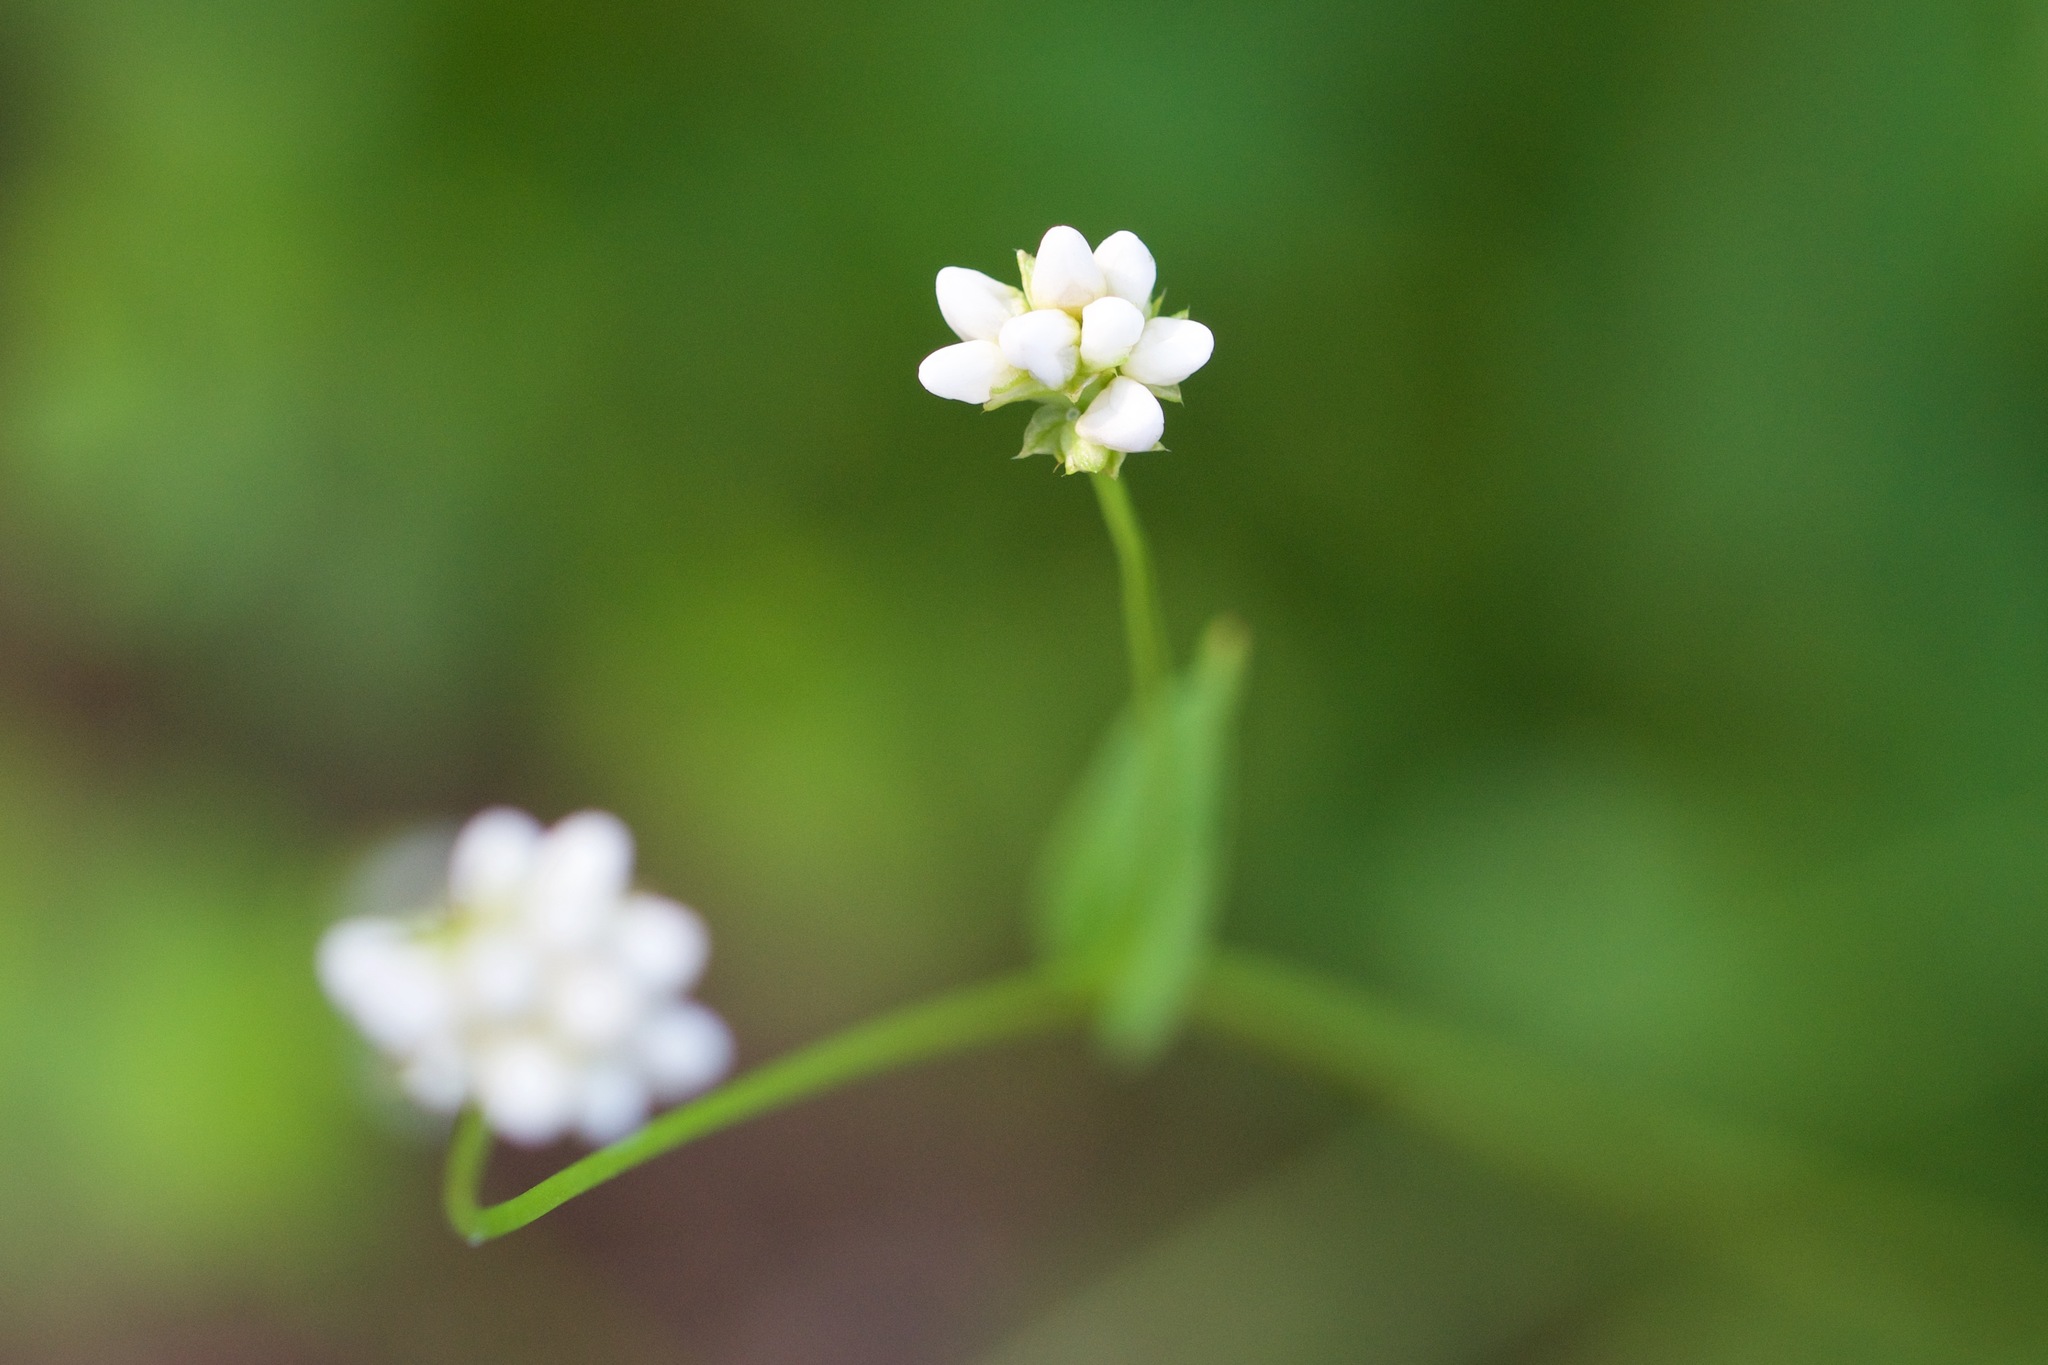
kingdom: Plantae
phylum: Tracheophyta
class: Magnoliopsida
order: Caryophyllales
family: Polygonaceae
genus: Persicaria
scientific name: Persicaria sagittata
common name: American tearthumb
